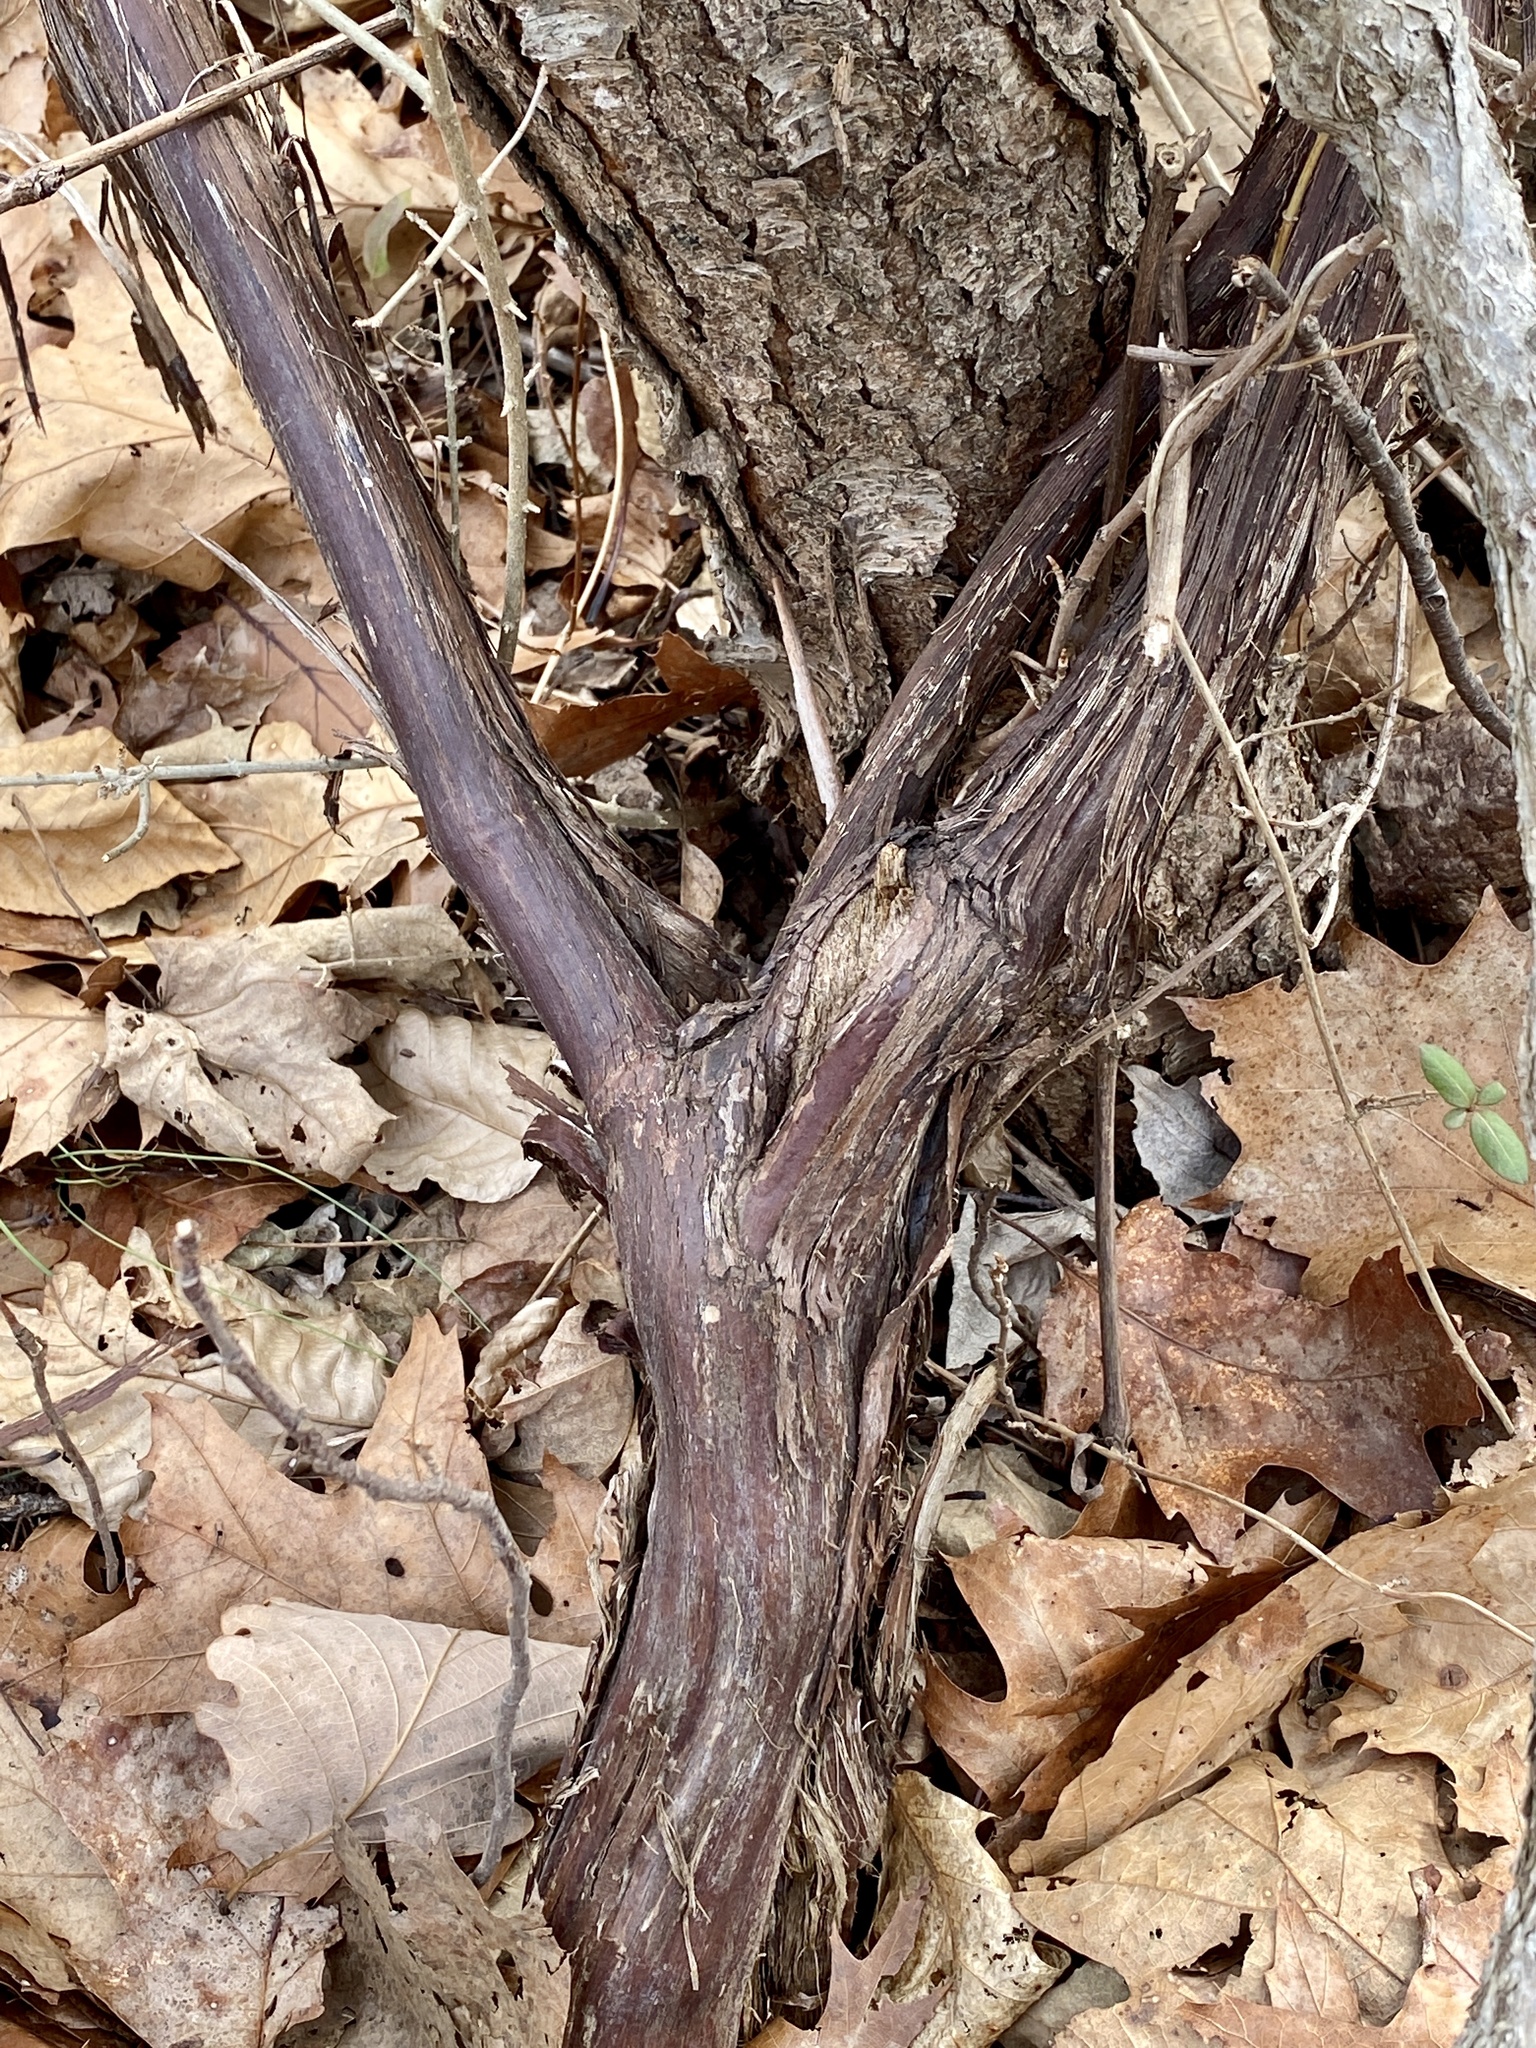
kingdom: Plantae
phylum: Tracheophyta
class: Magnoliopsida
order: Vitales
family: Vitaceae
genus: Vitis
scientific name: Vitis
